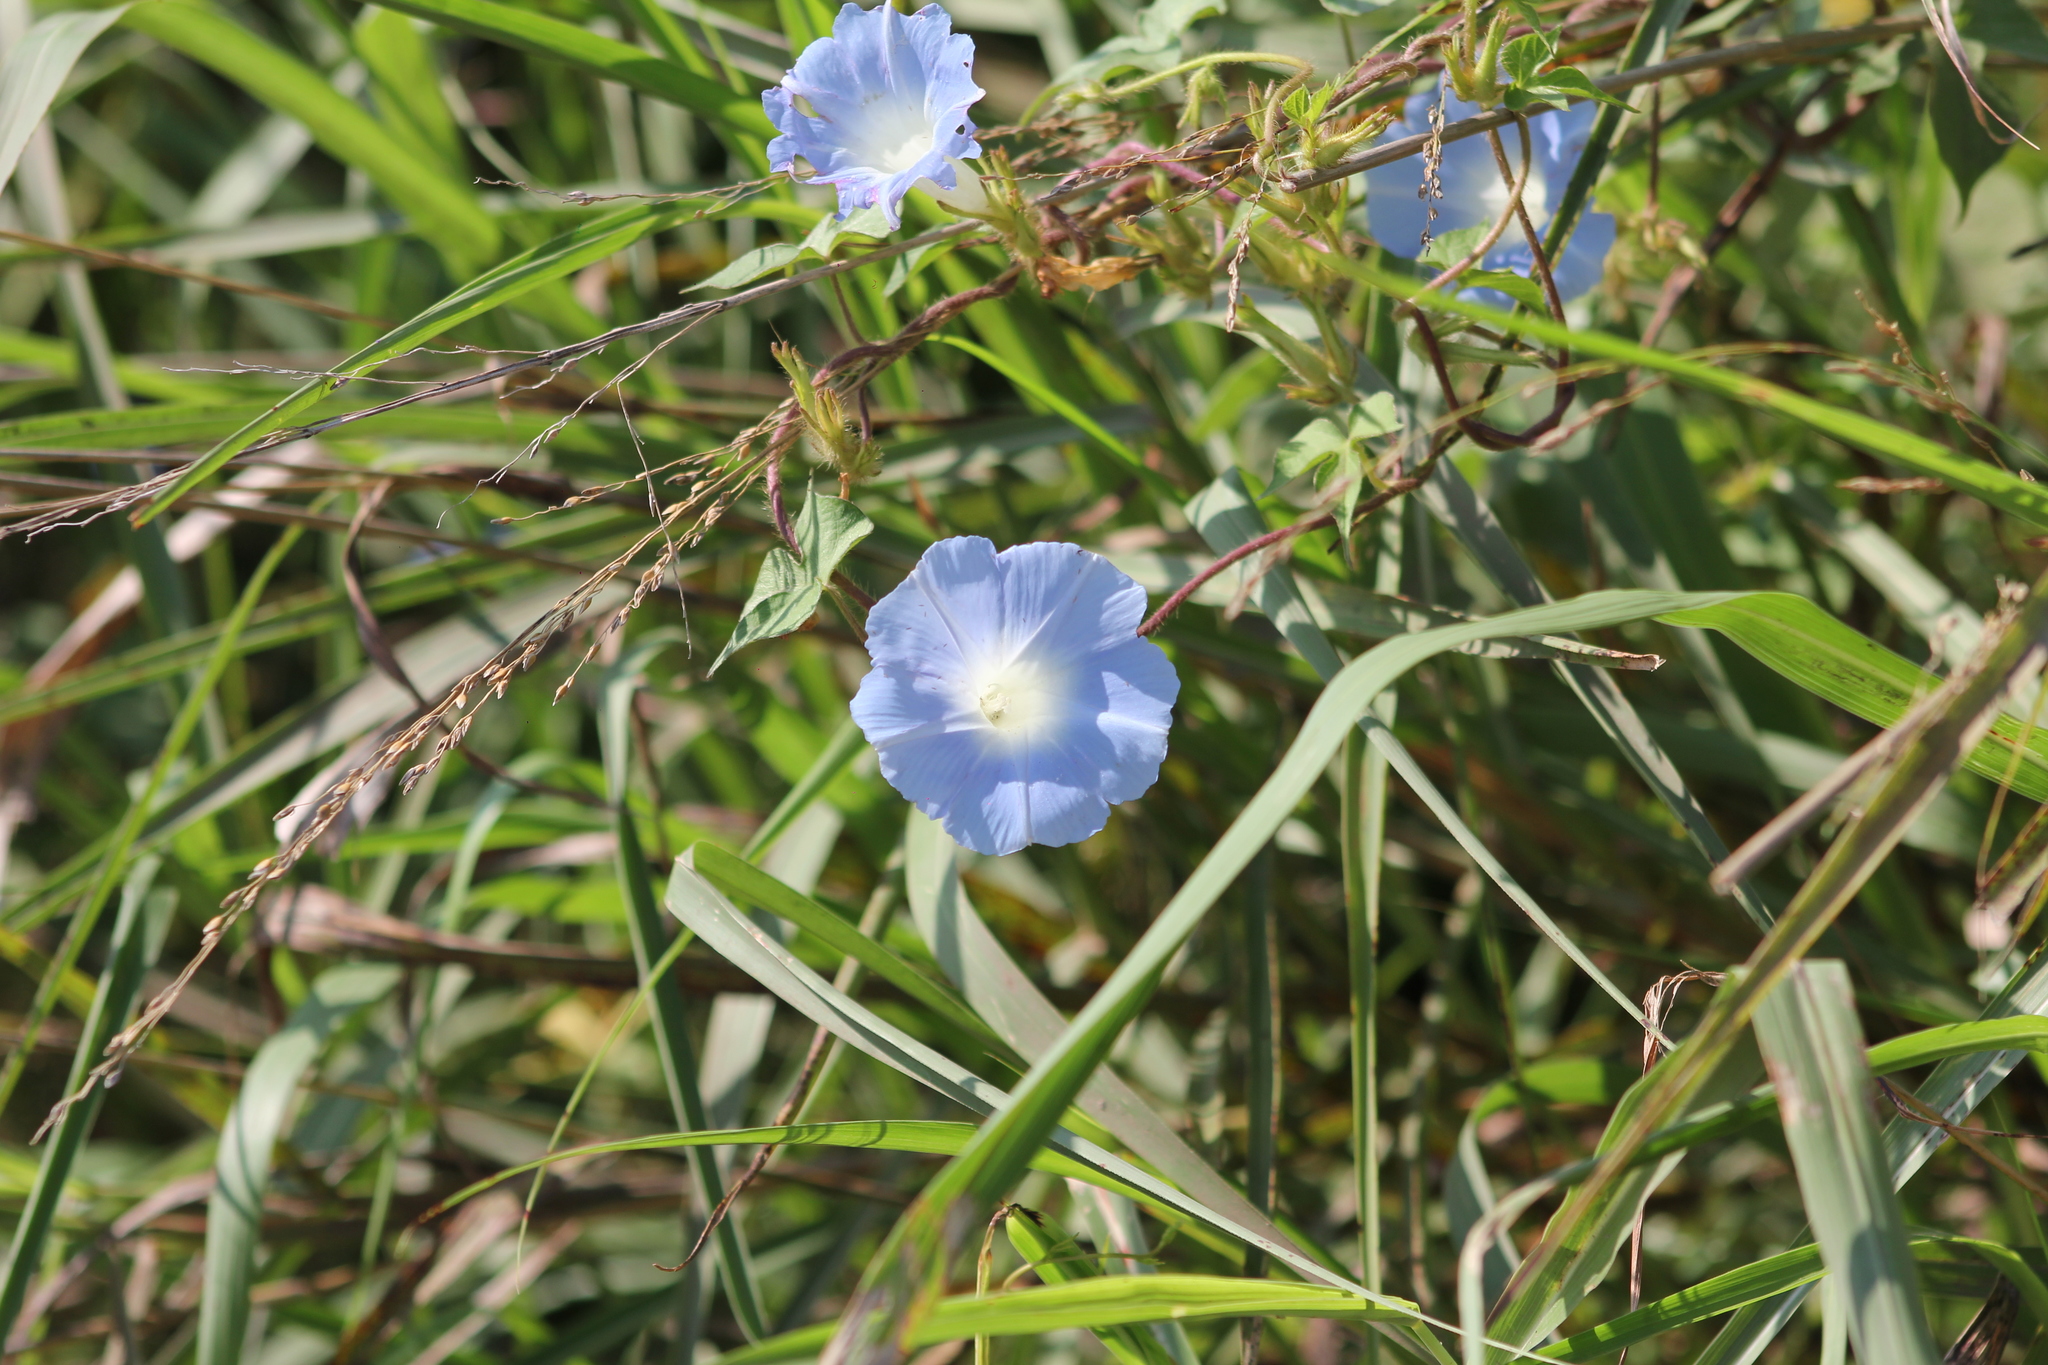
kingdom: Plantae
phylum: Tracheophyta
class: Magnoliopsida
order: Solanales
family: Convolvulaceae
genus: Ipomoea
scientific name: Ipomoea nil
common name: Japanese morning-glory
